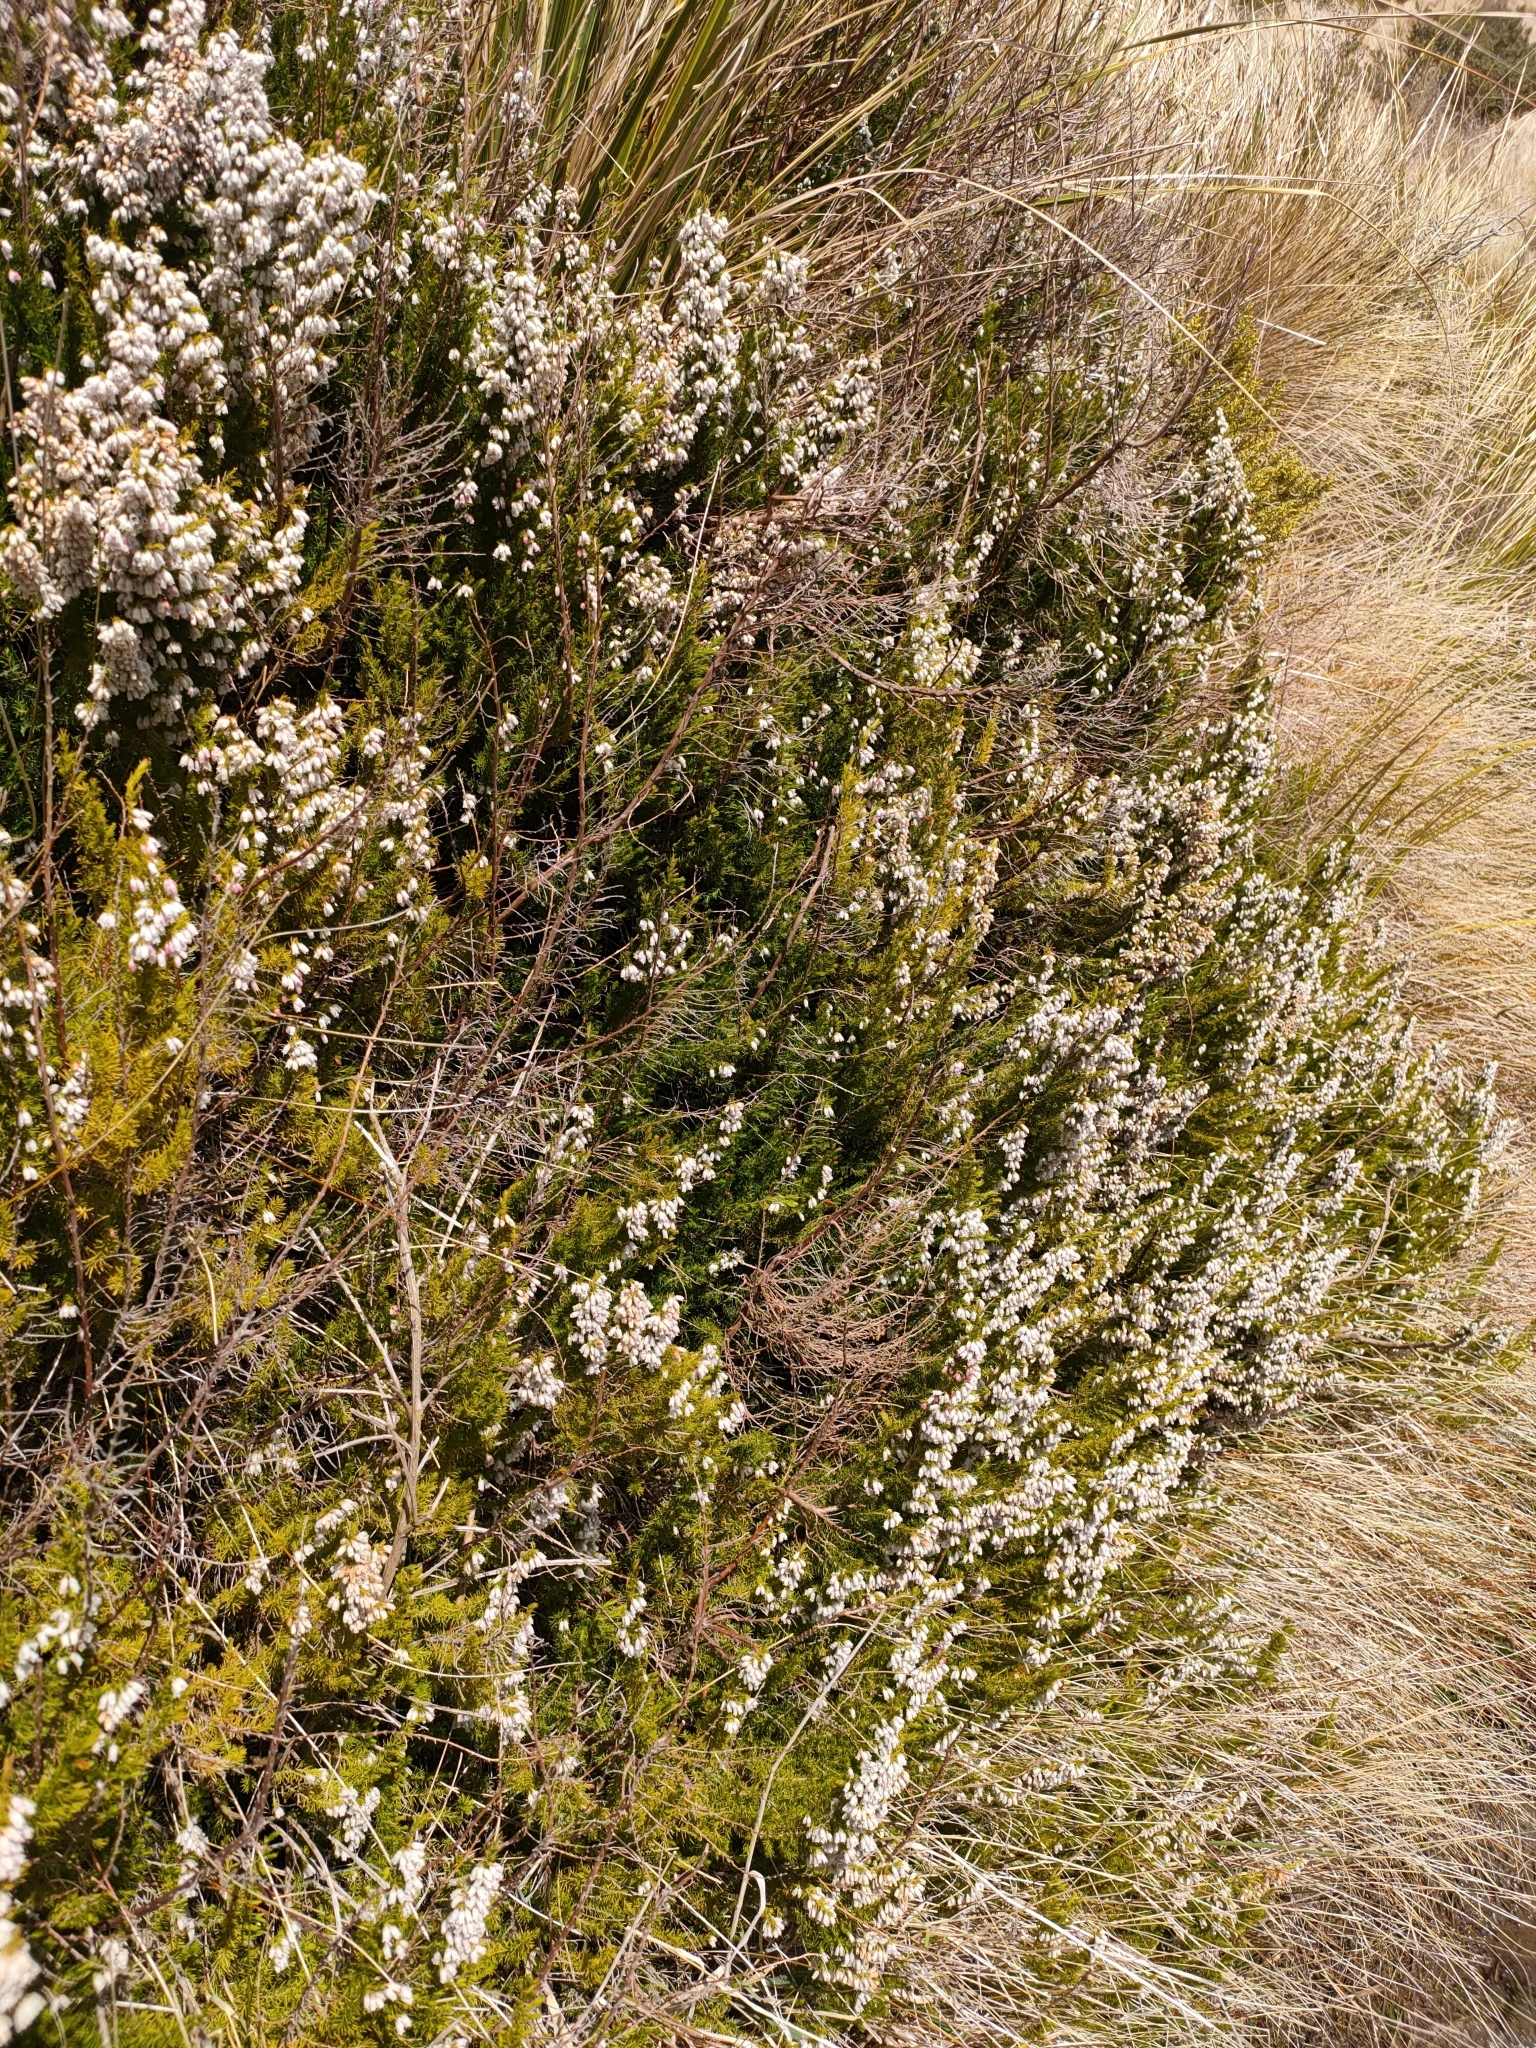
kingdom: Plantae
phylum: Tracheophyta
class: Magnoliopsida
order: Ericales
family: Ericaceae
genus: Erica
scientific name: Erica lusitanica
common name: Spanish heath
